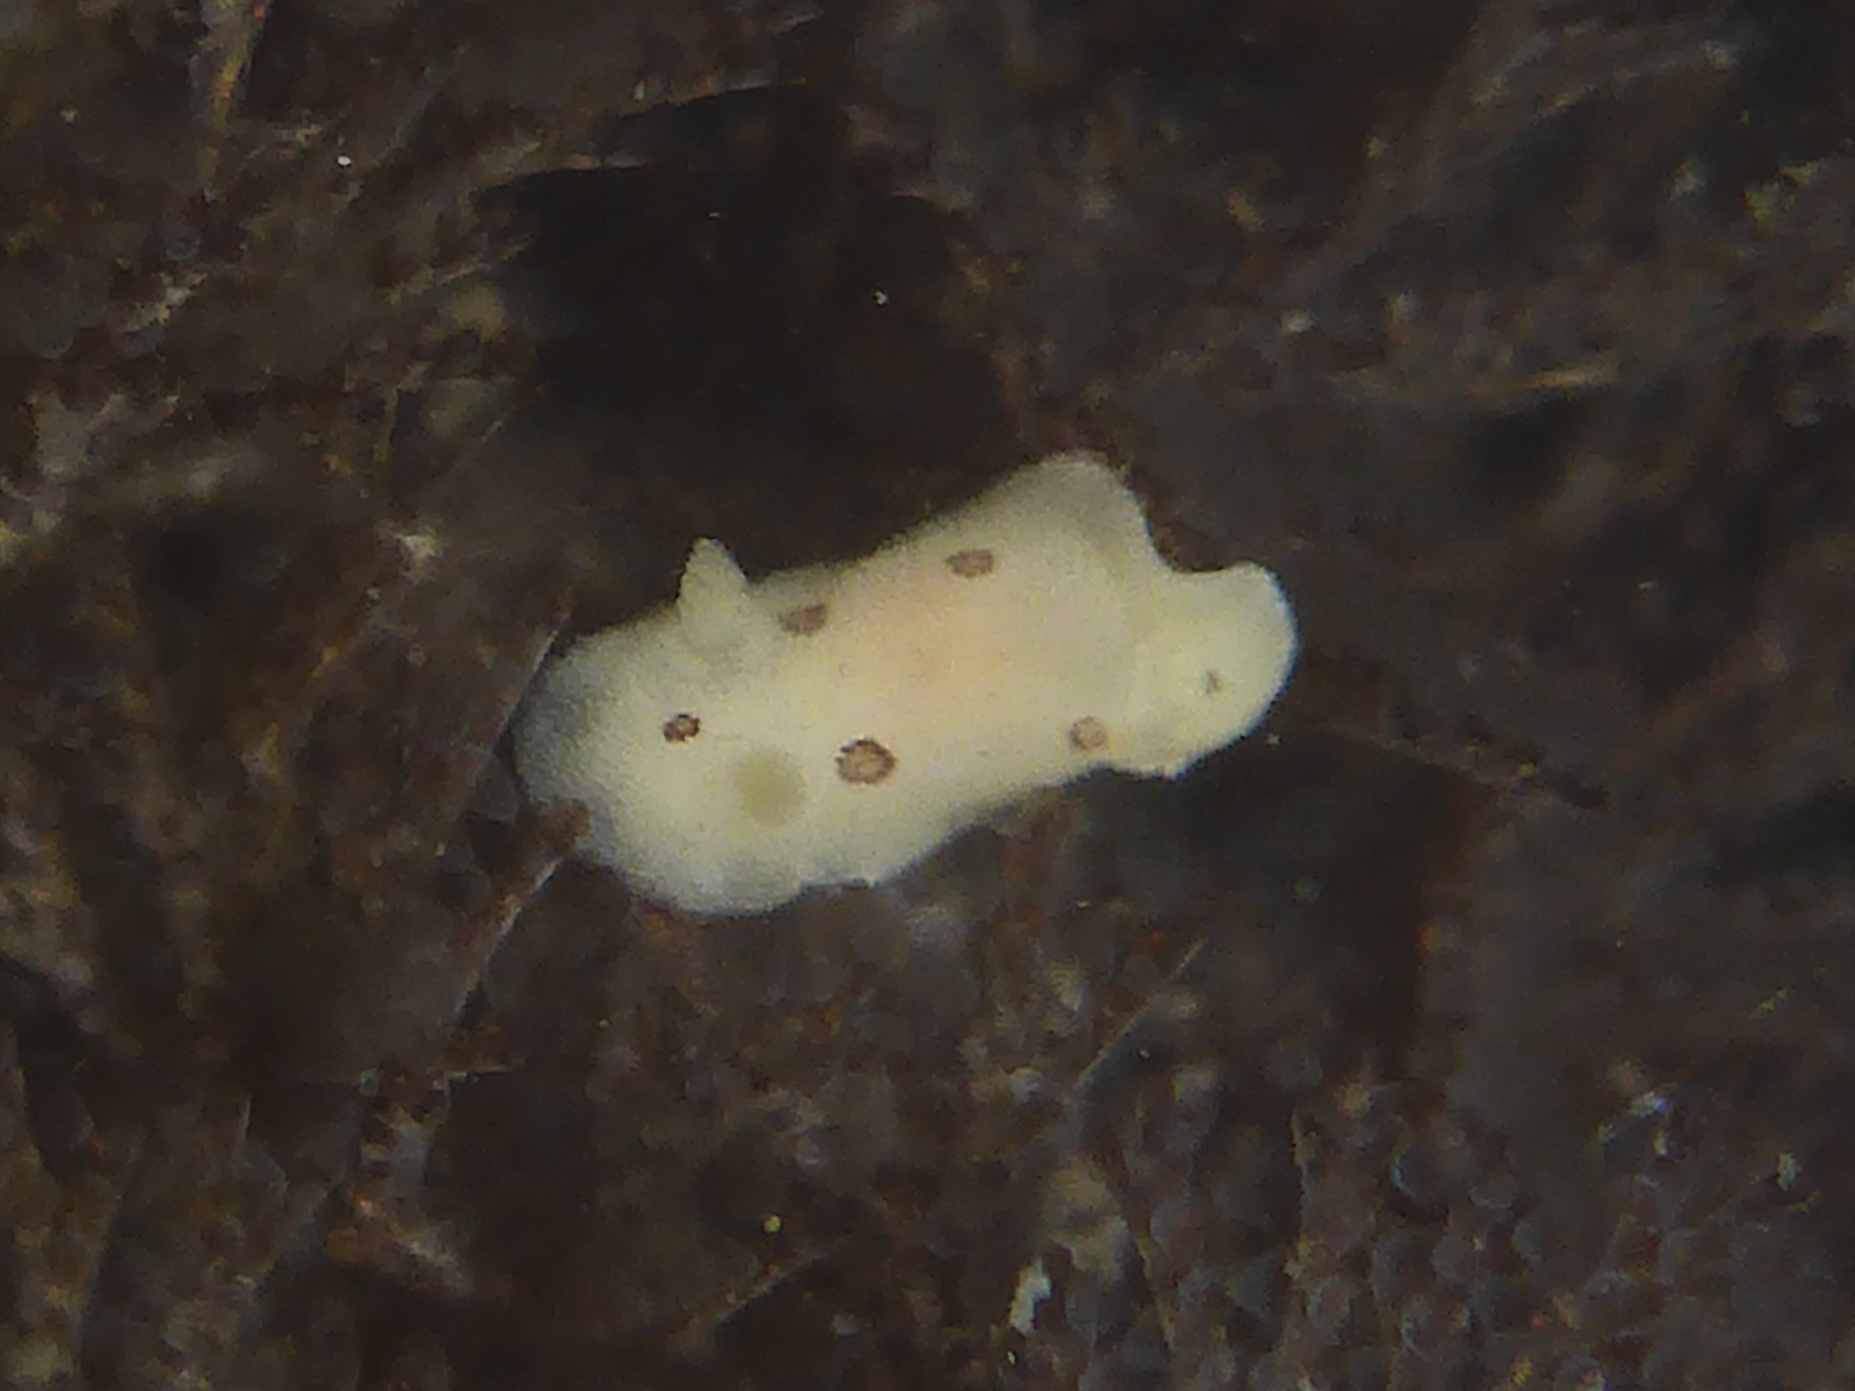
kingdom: Animalia
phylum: Mollusca
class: Gastropoda
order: Nudibranchia
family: Discodorididae
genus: Diaulula
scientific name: Diaulula sandiegensis
